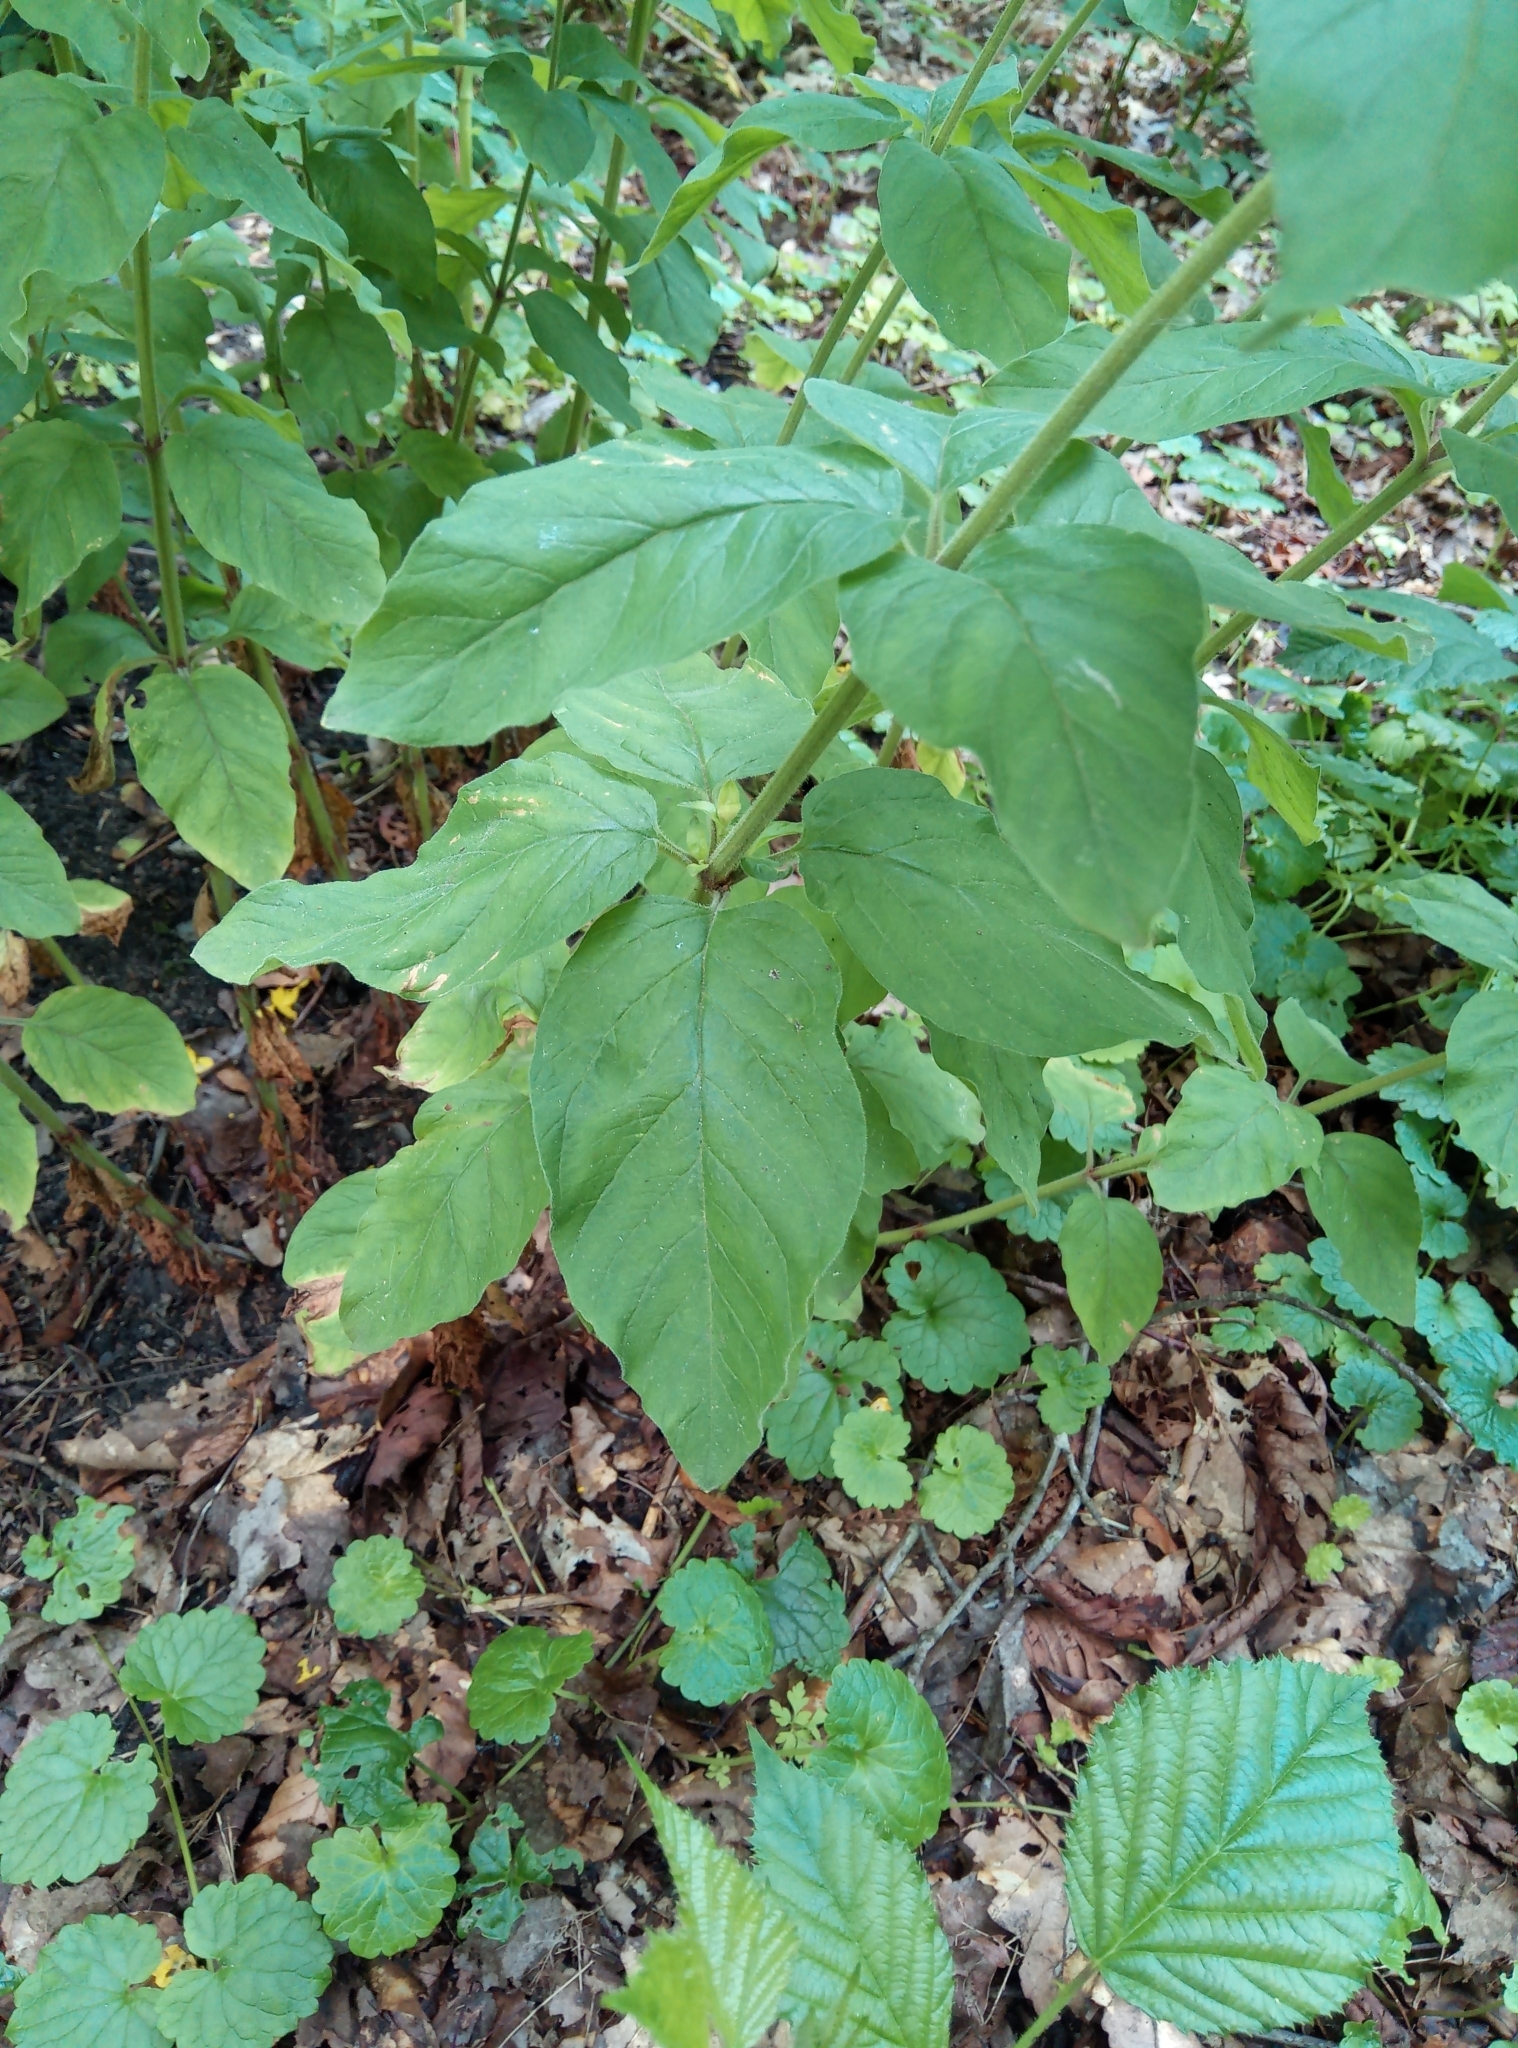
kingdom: Plantae
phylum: Tracheophyta
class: Magnoliopsida
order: Ericales
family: Primulaceae
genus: Lysimachia
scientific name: Lysimachia punctata
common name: Dotted loosestrife
